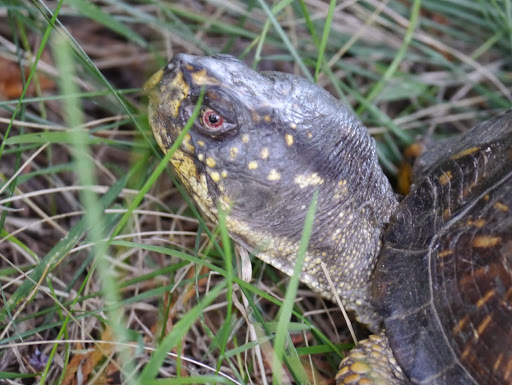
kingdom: Animalia
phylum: Chordata
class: Testudines
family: Emydidae
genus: Terrapene
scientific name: Terrapene carolina
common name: Common box turtle
